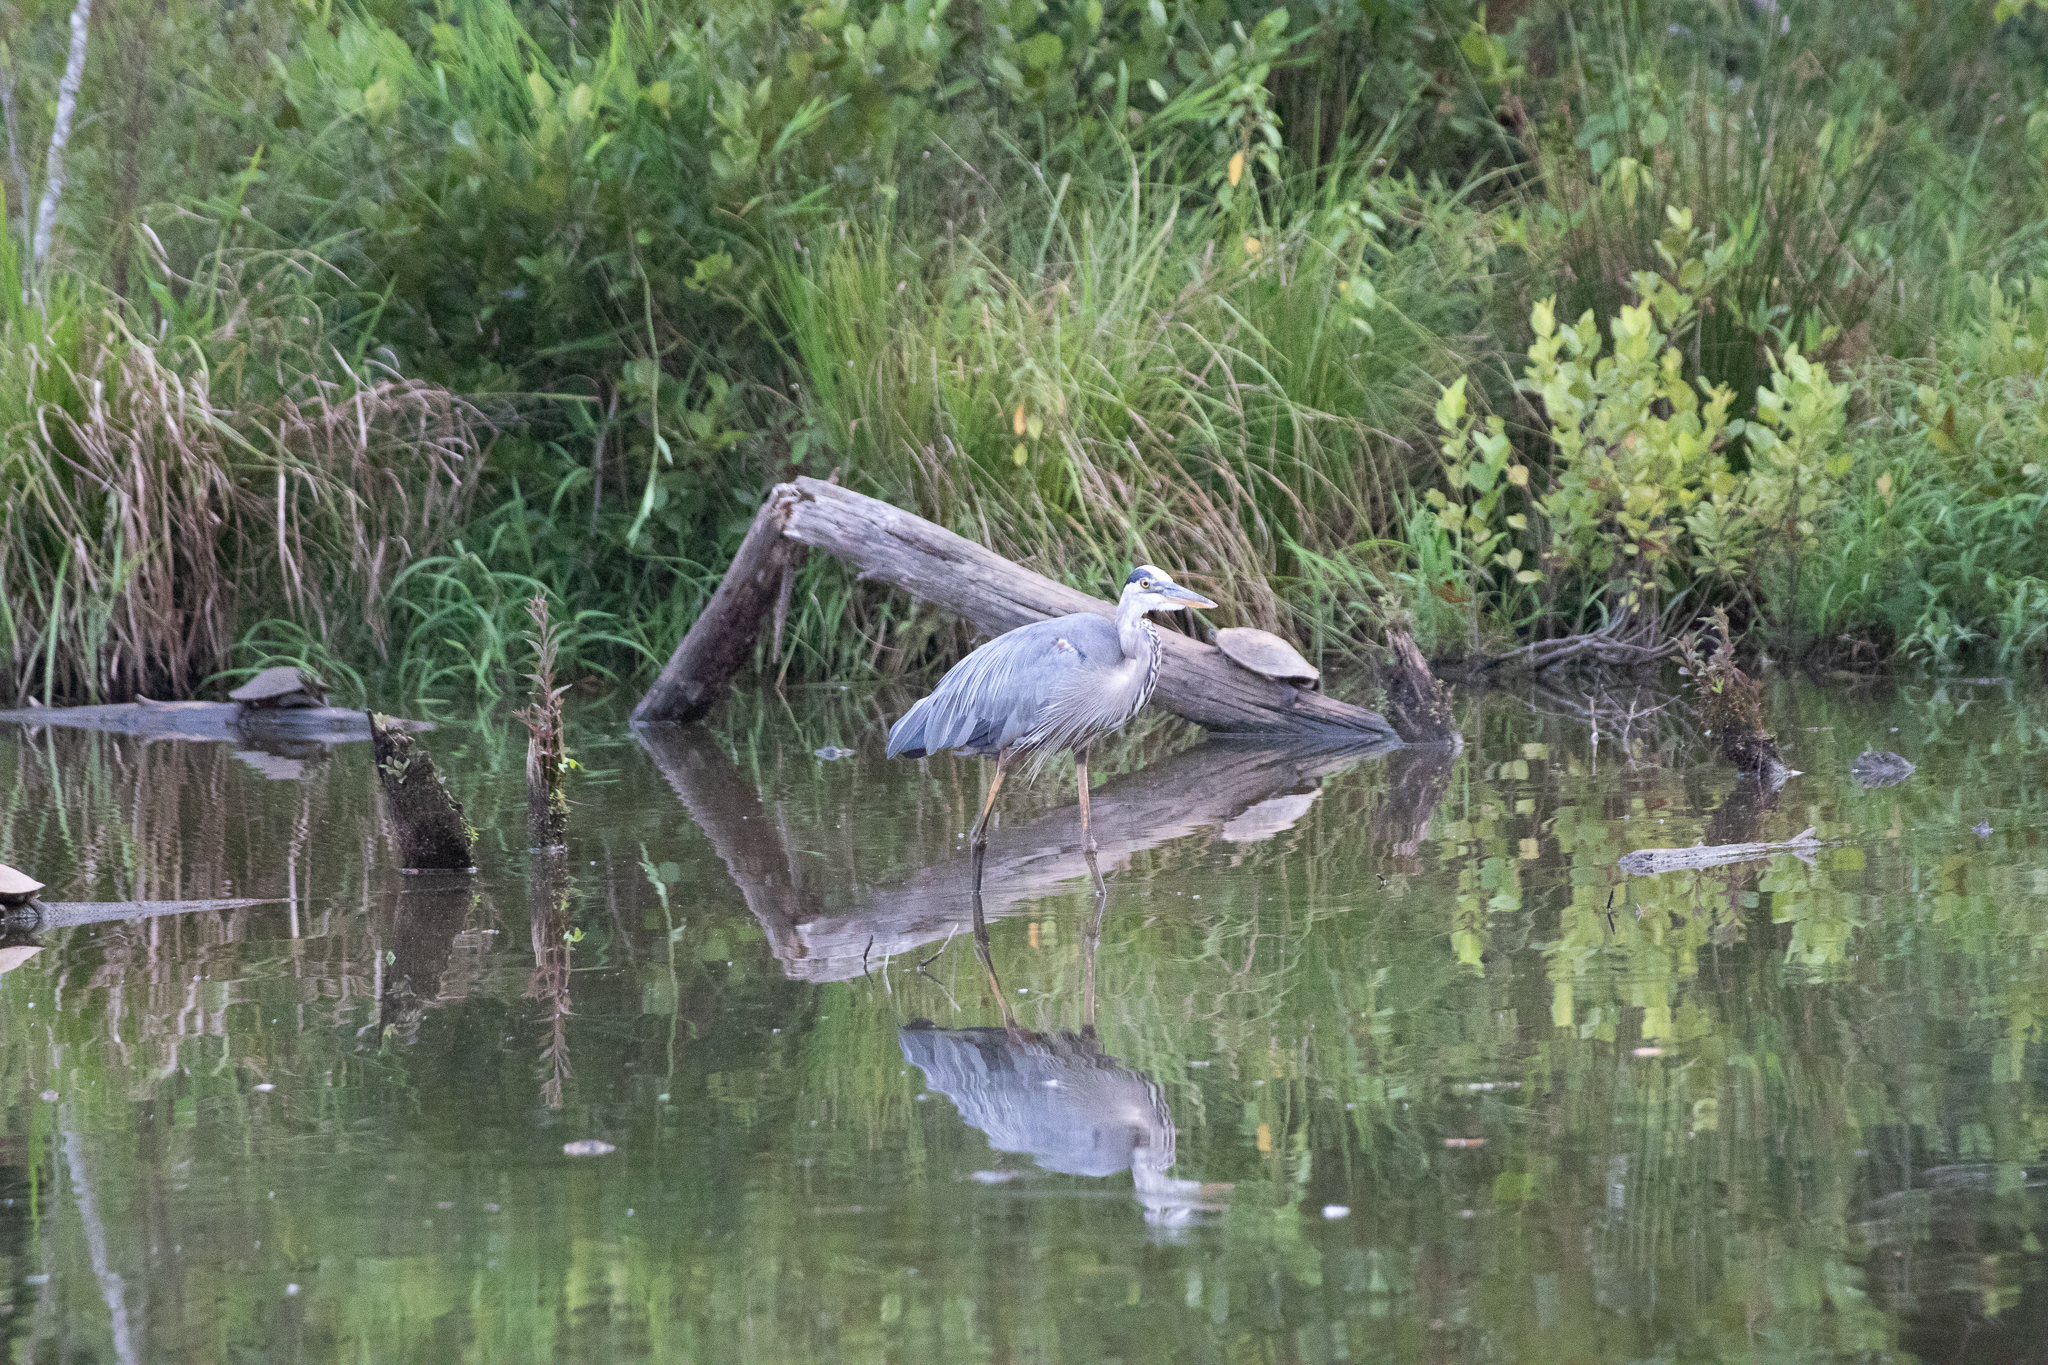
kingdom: Animalia
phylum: Chordata
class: Aves
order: Pelecaniformes
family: Ardeidae
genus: Ardea
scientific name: Ardea herodias
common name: Great blue heron
